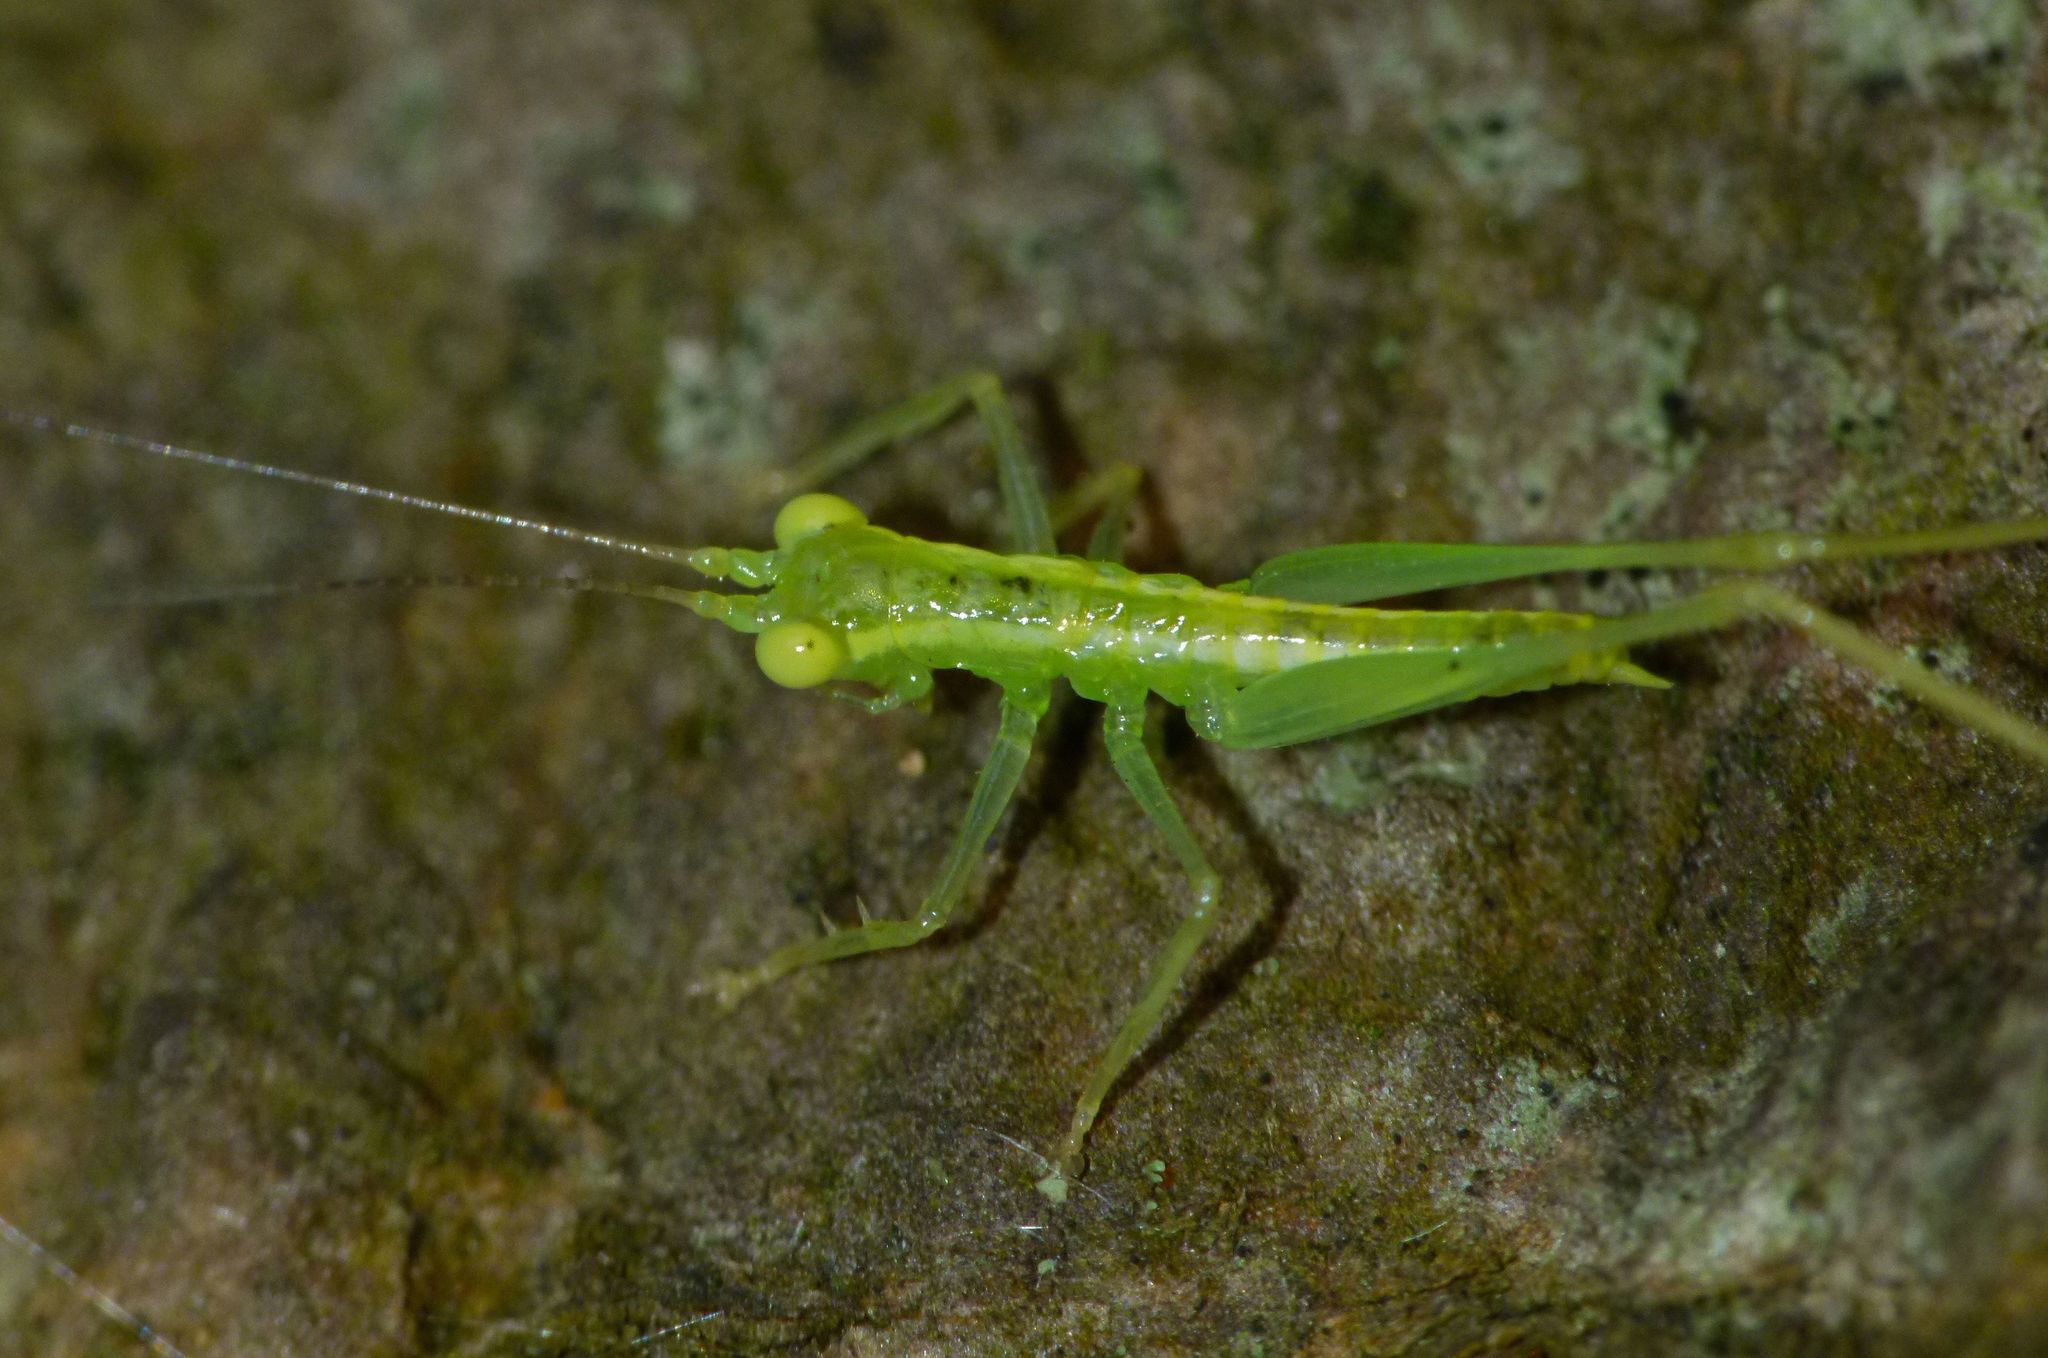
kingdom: Animalia
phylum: Arthropoda
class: Insecta
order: Orthoptera
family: Tettigoniidae
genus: Austrophlugis
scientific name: Austrophlugis debaari
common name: Debaar's swayer
